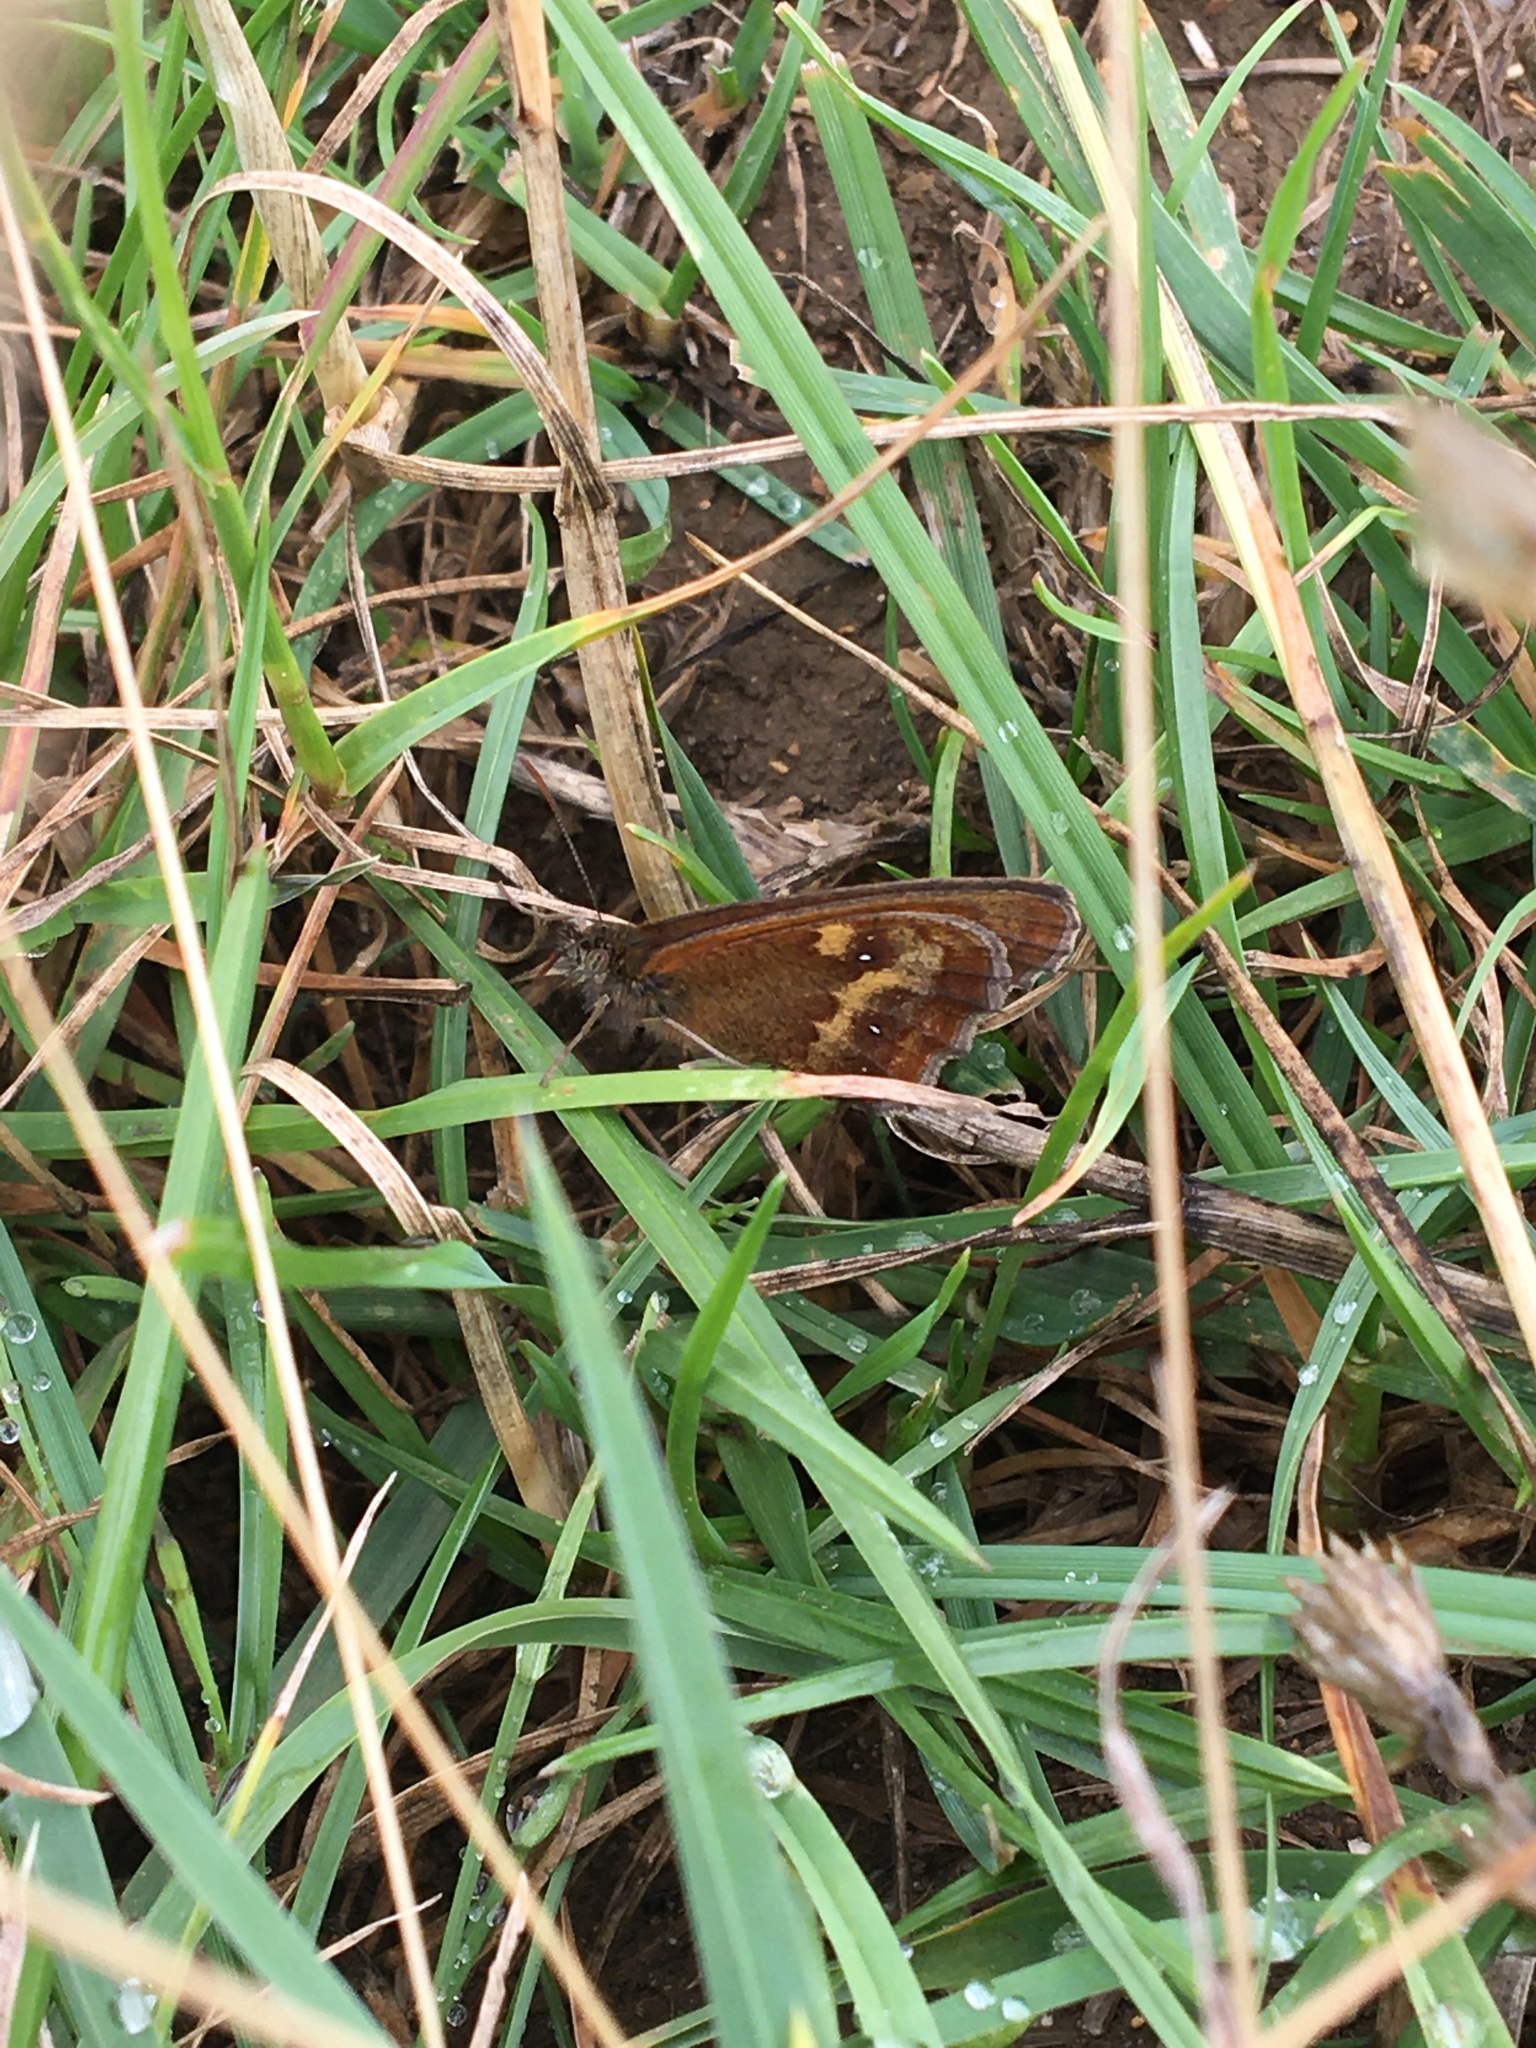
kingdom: Animalia
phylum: Arthropoda
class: Insecta
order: Lepidoptera
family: Nymphalidae
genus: Pyronia
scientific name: Pyronia tithonus
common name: Gatekeeper
